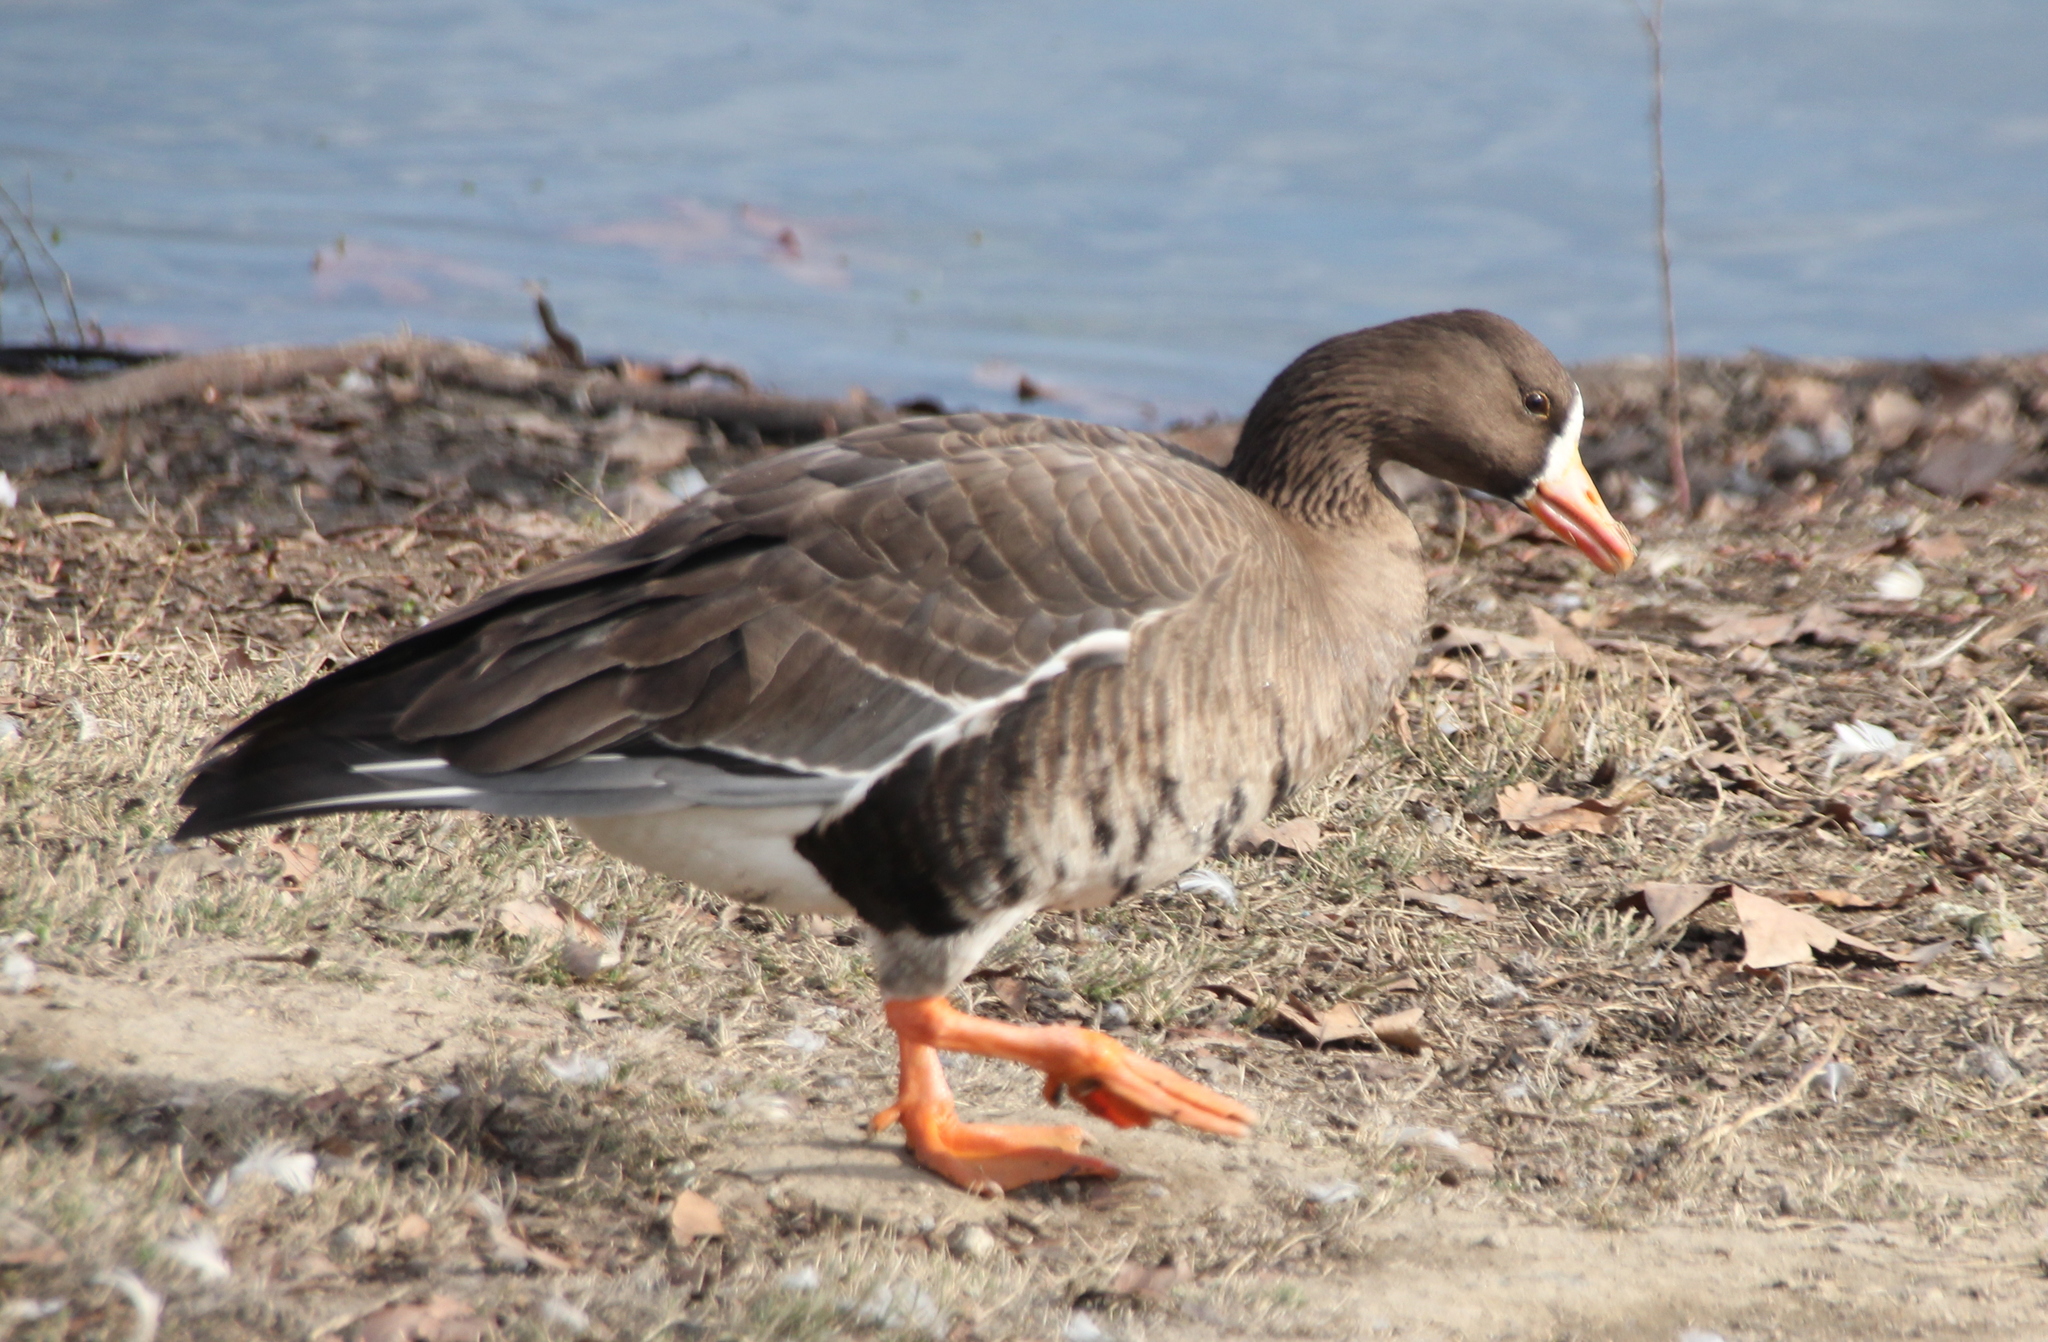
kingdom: Animalia
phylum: Chordata
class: Aves
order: Anseriformes
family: Anatidae
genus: Anser
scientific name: Anser albifrons
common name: Greater white-fronted goose
